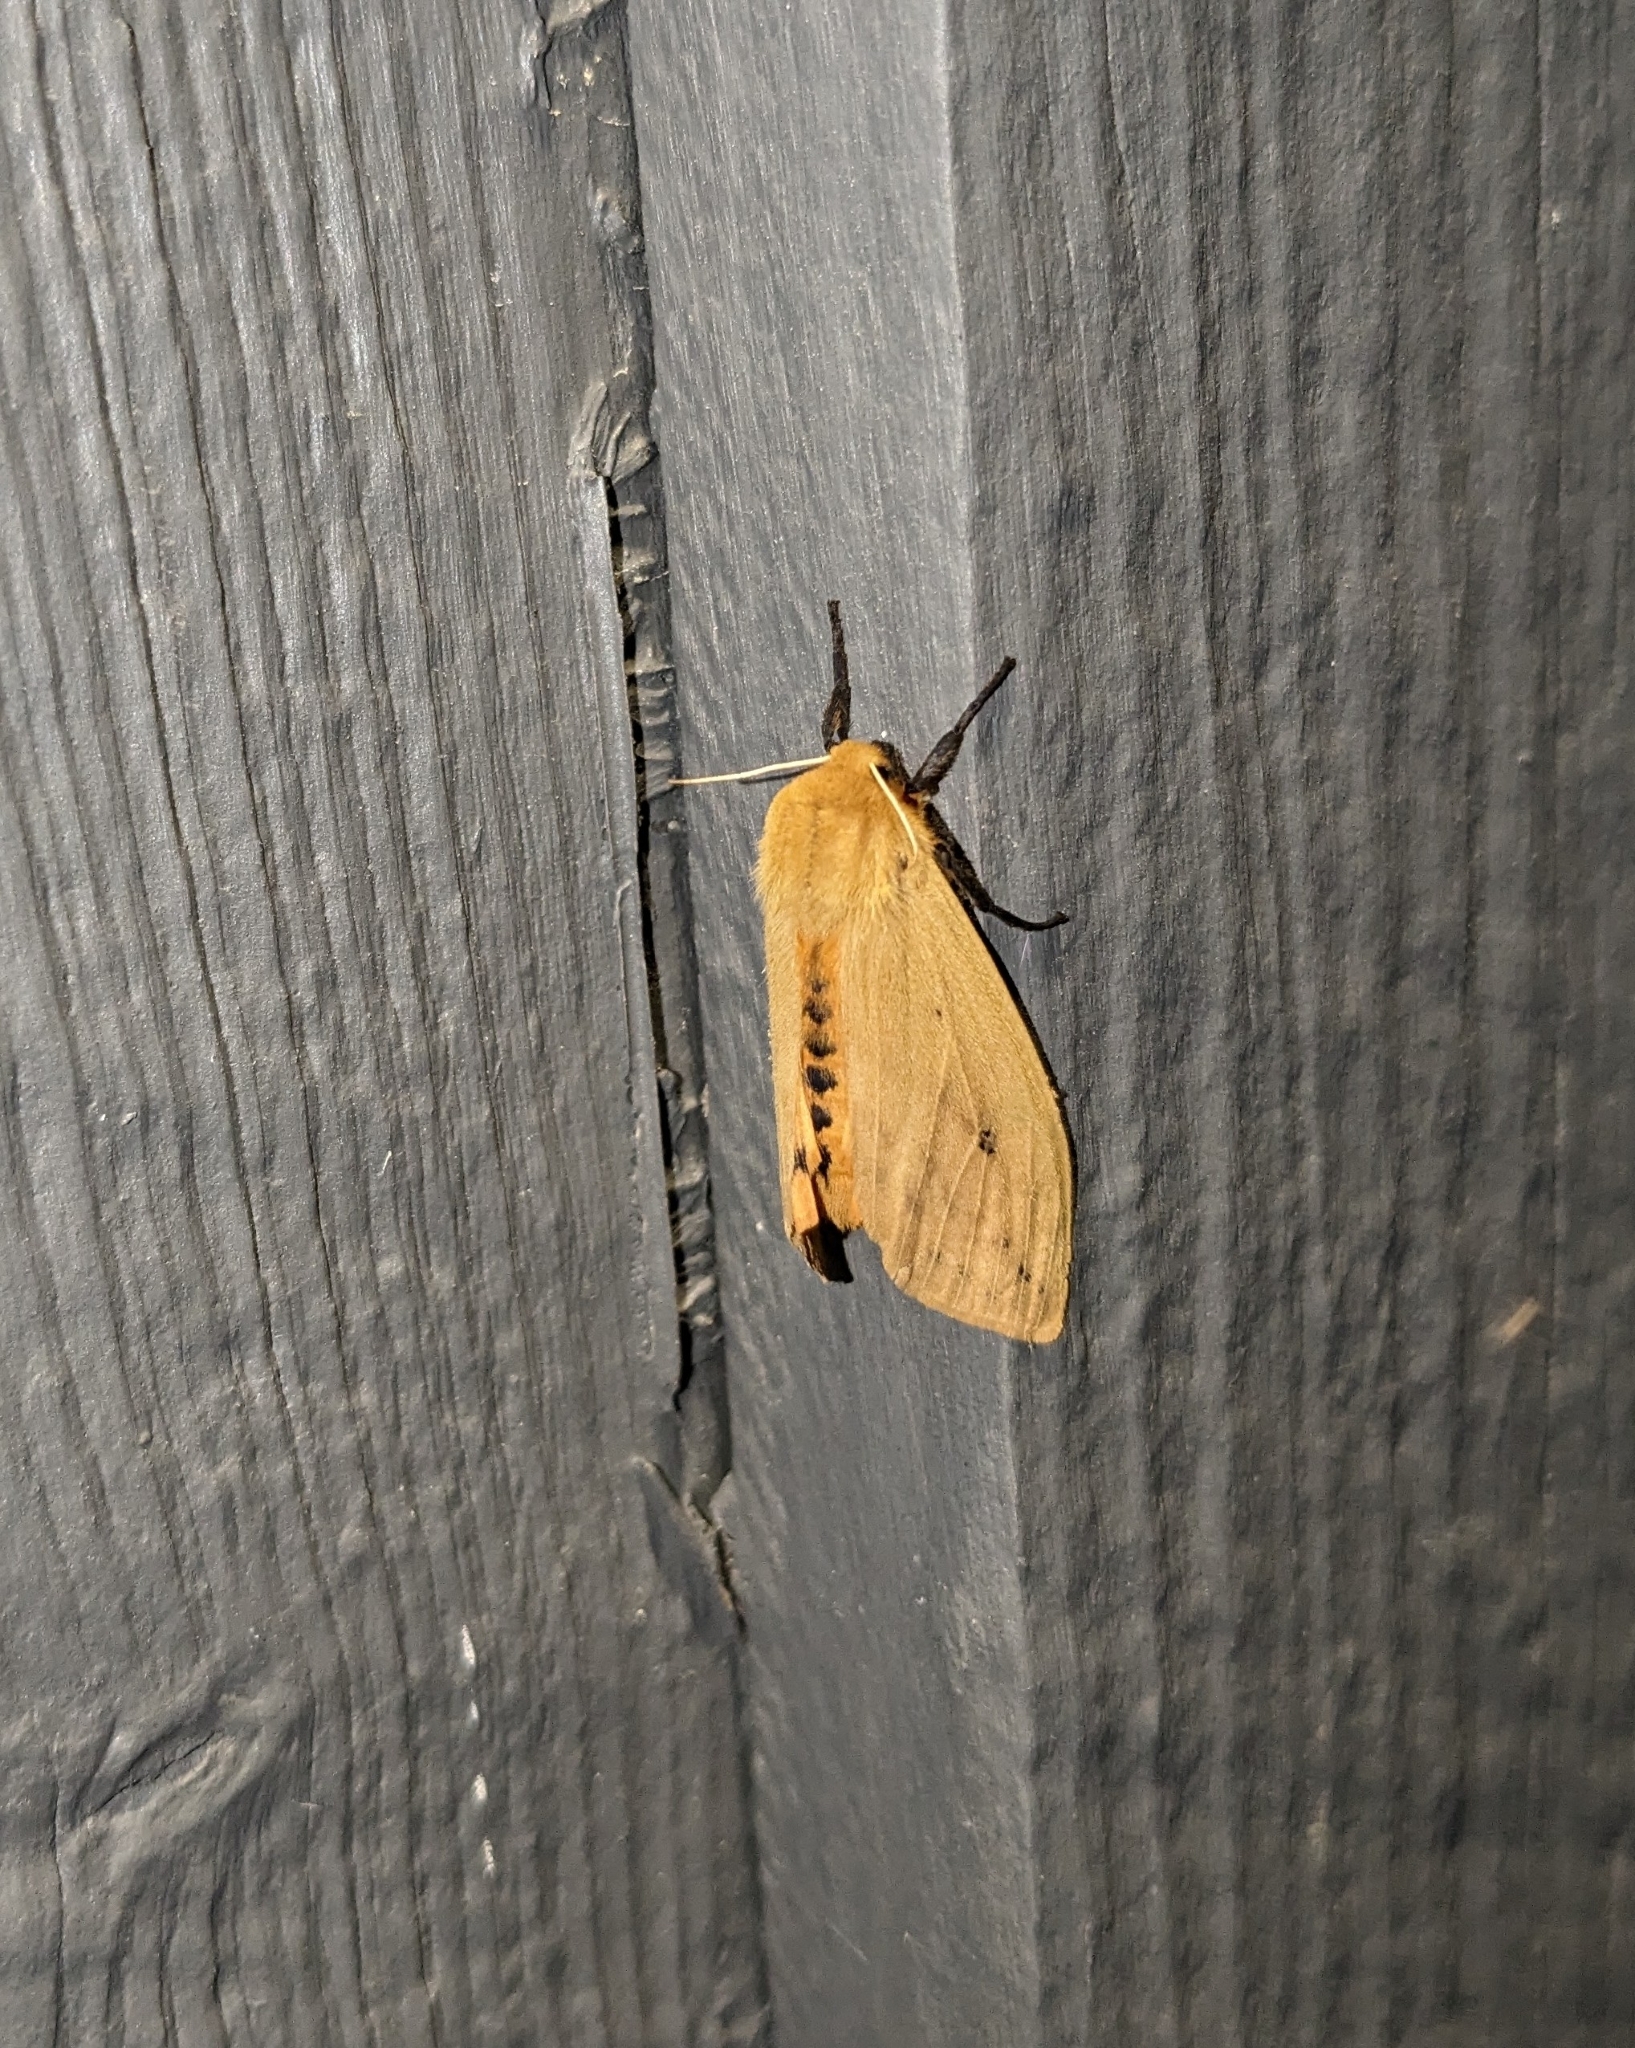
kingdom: Animalia
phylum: Arthropoda
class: Insecta
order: Lepidoptera
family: Erebidae
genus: Pyrrharctia
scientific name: Pyrrharctia isabella
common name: Isabella tiger moth
